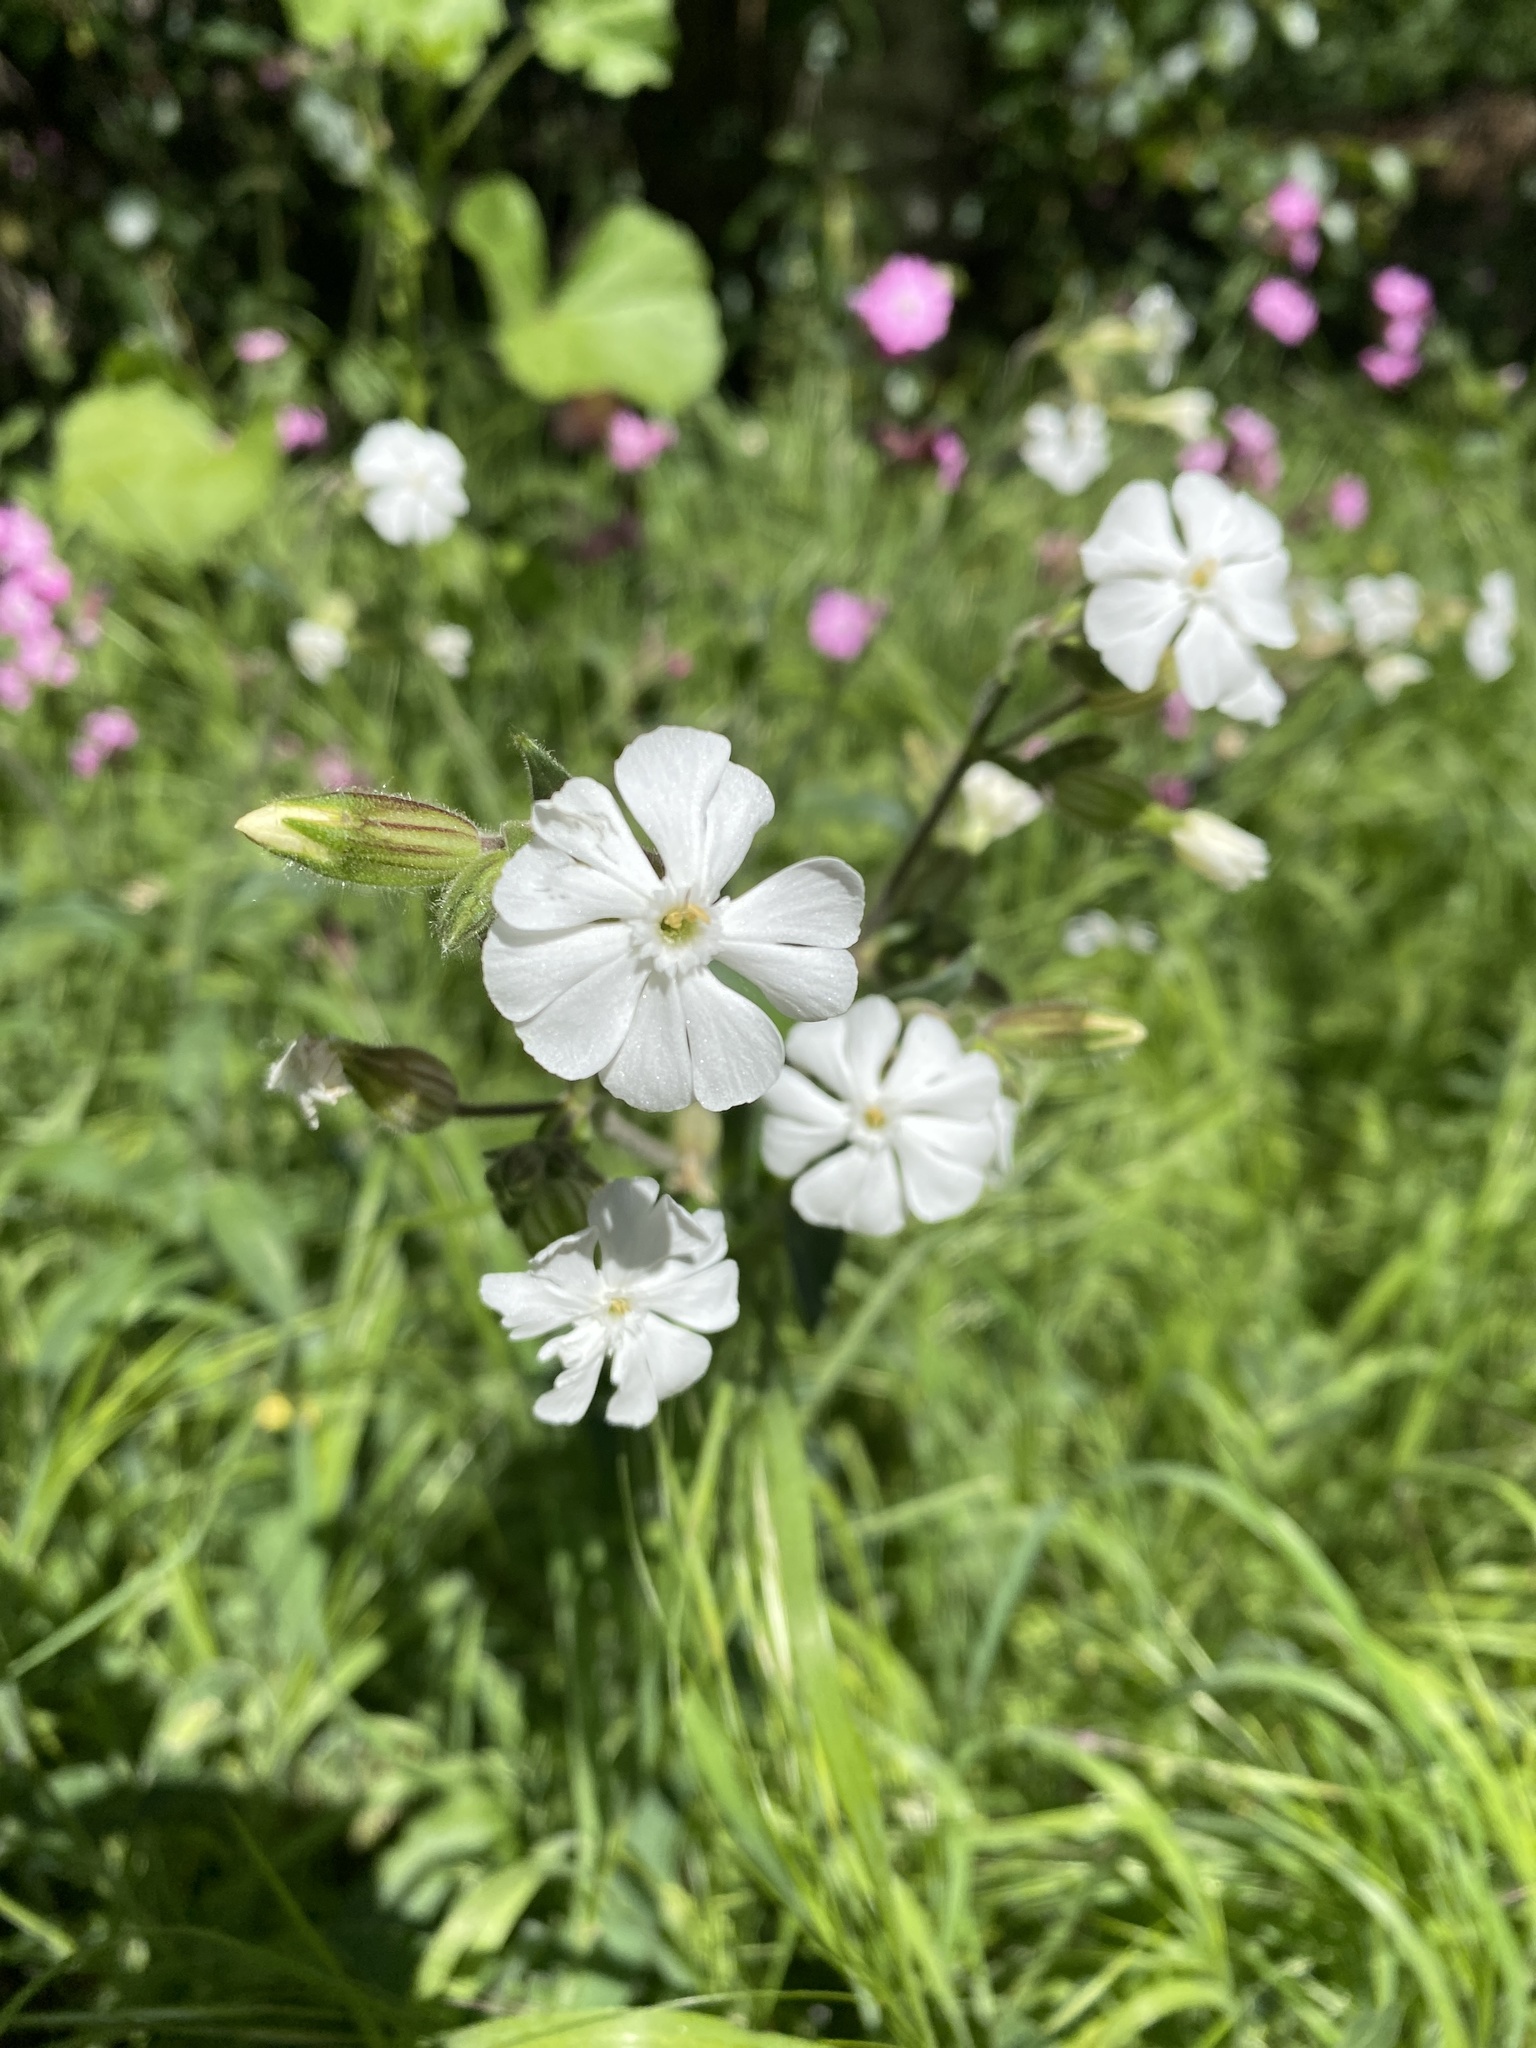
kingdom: Plantae
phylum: Tracheophyta
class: Magnoliopsida
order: Caryophyllales
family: Caryophyllaceae
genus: Silene
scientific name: Silene latifolia
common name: White campion
